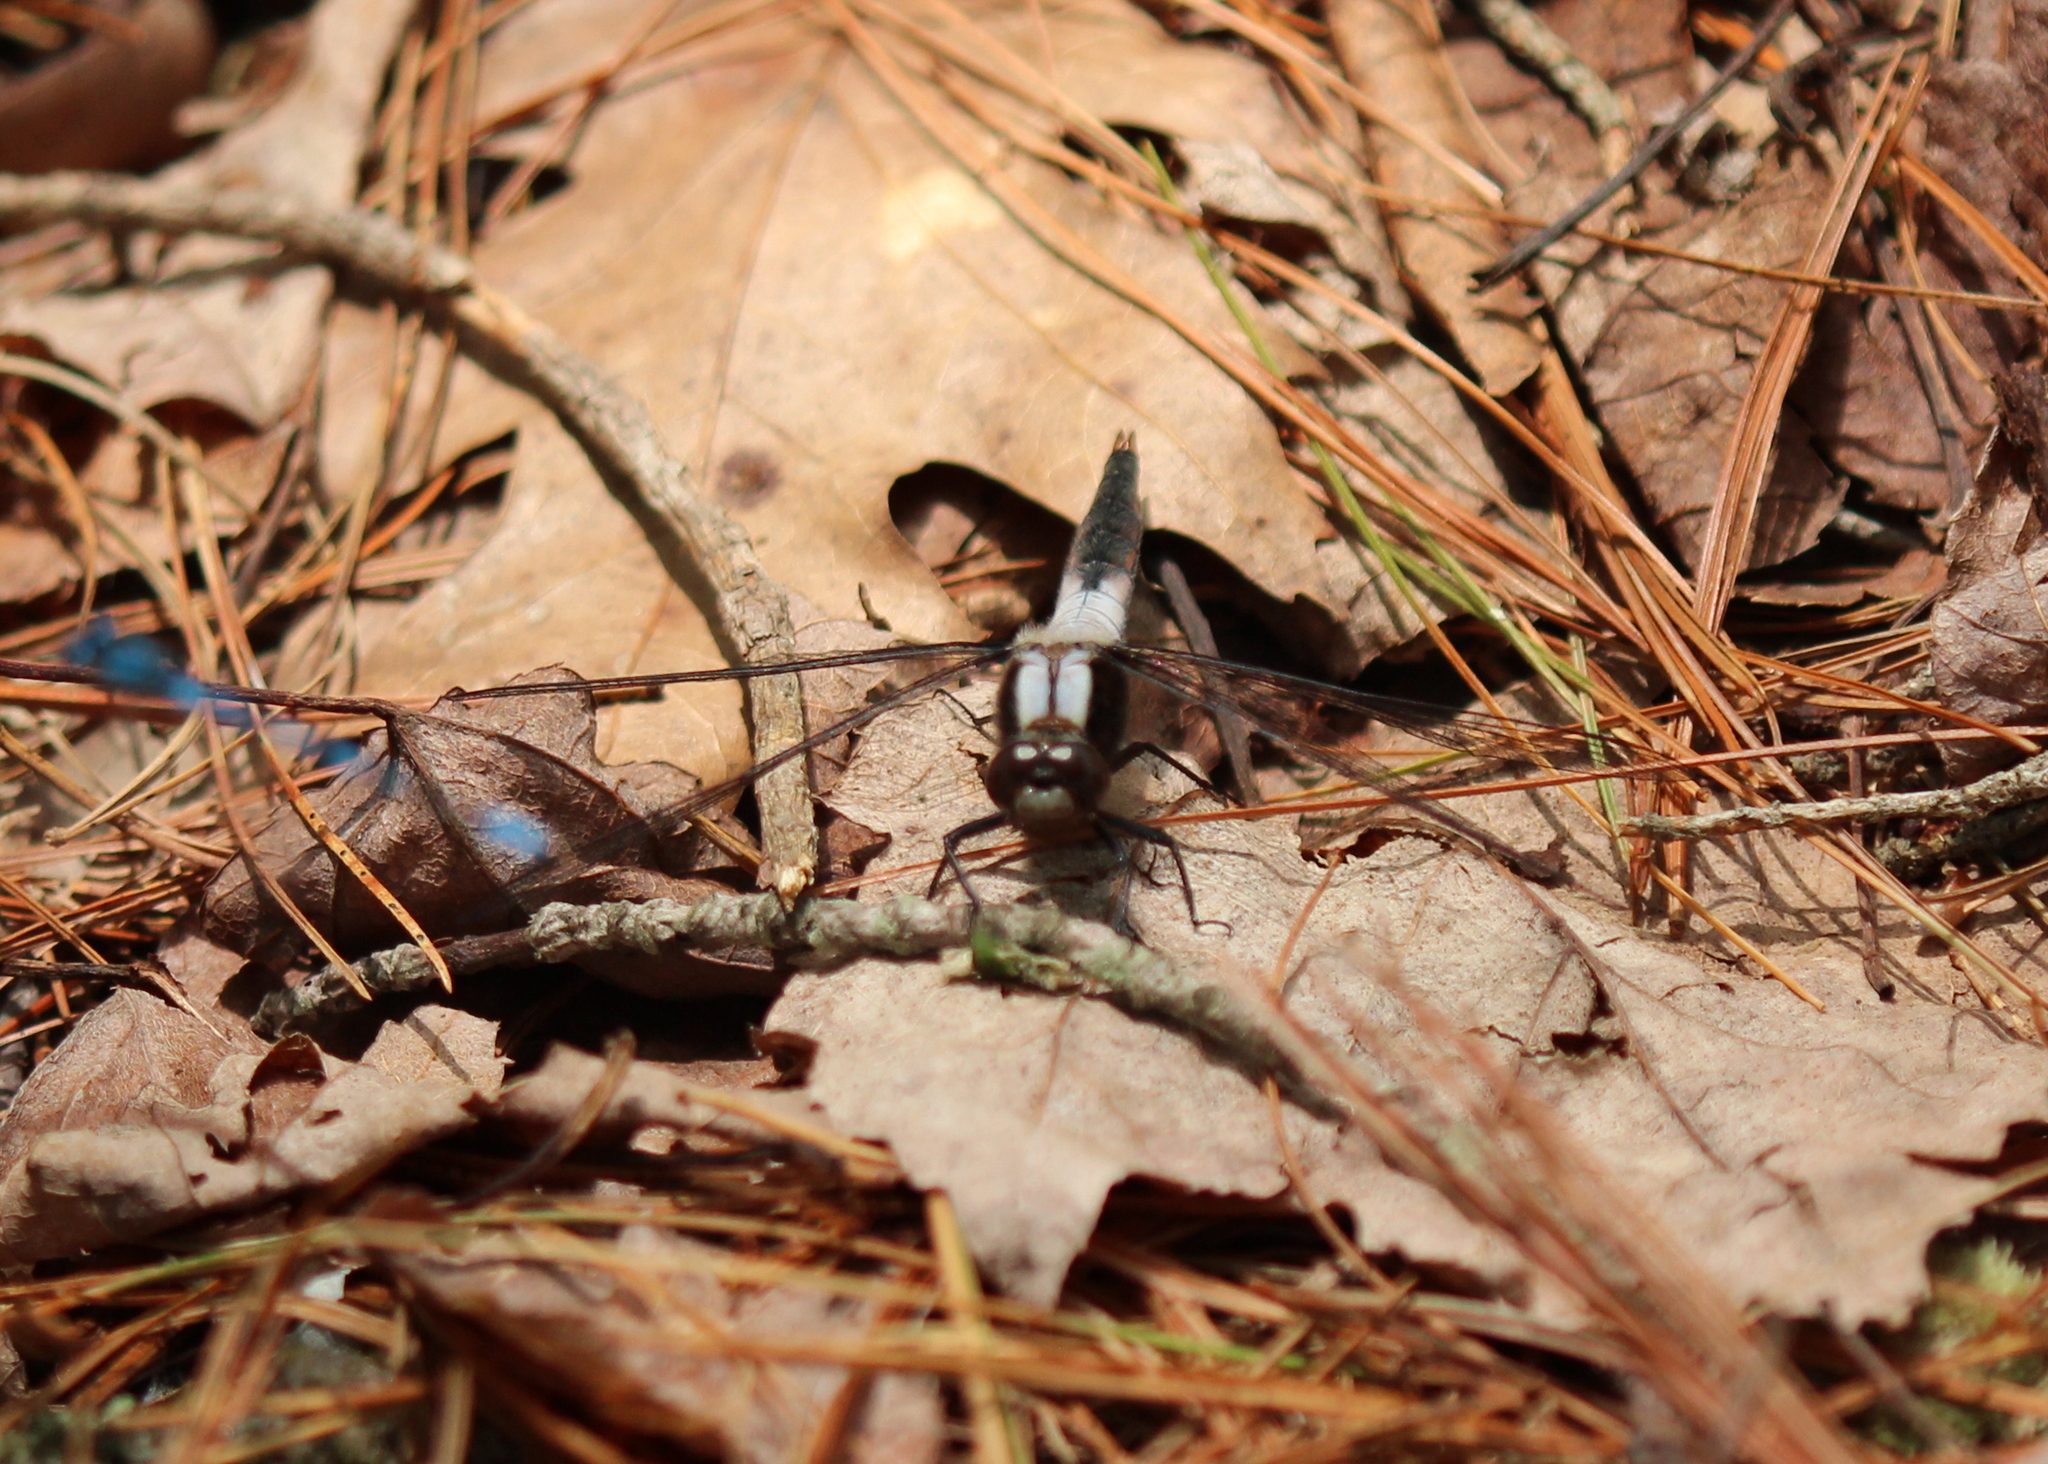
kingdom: Animalia
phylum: Arthropoda
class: Insecta
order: Odonata
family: Libellulidae
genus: Ladona
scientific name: Ladona julia
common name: Chalk-fronted corporal
